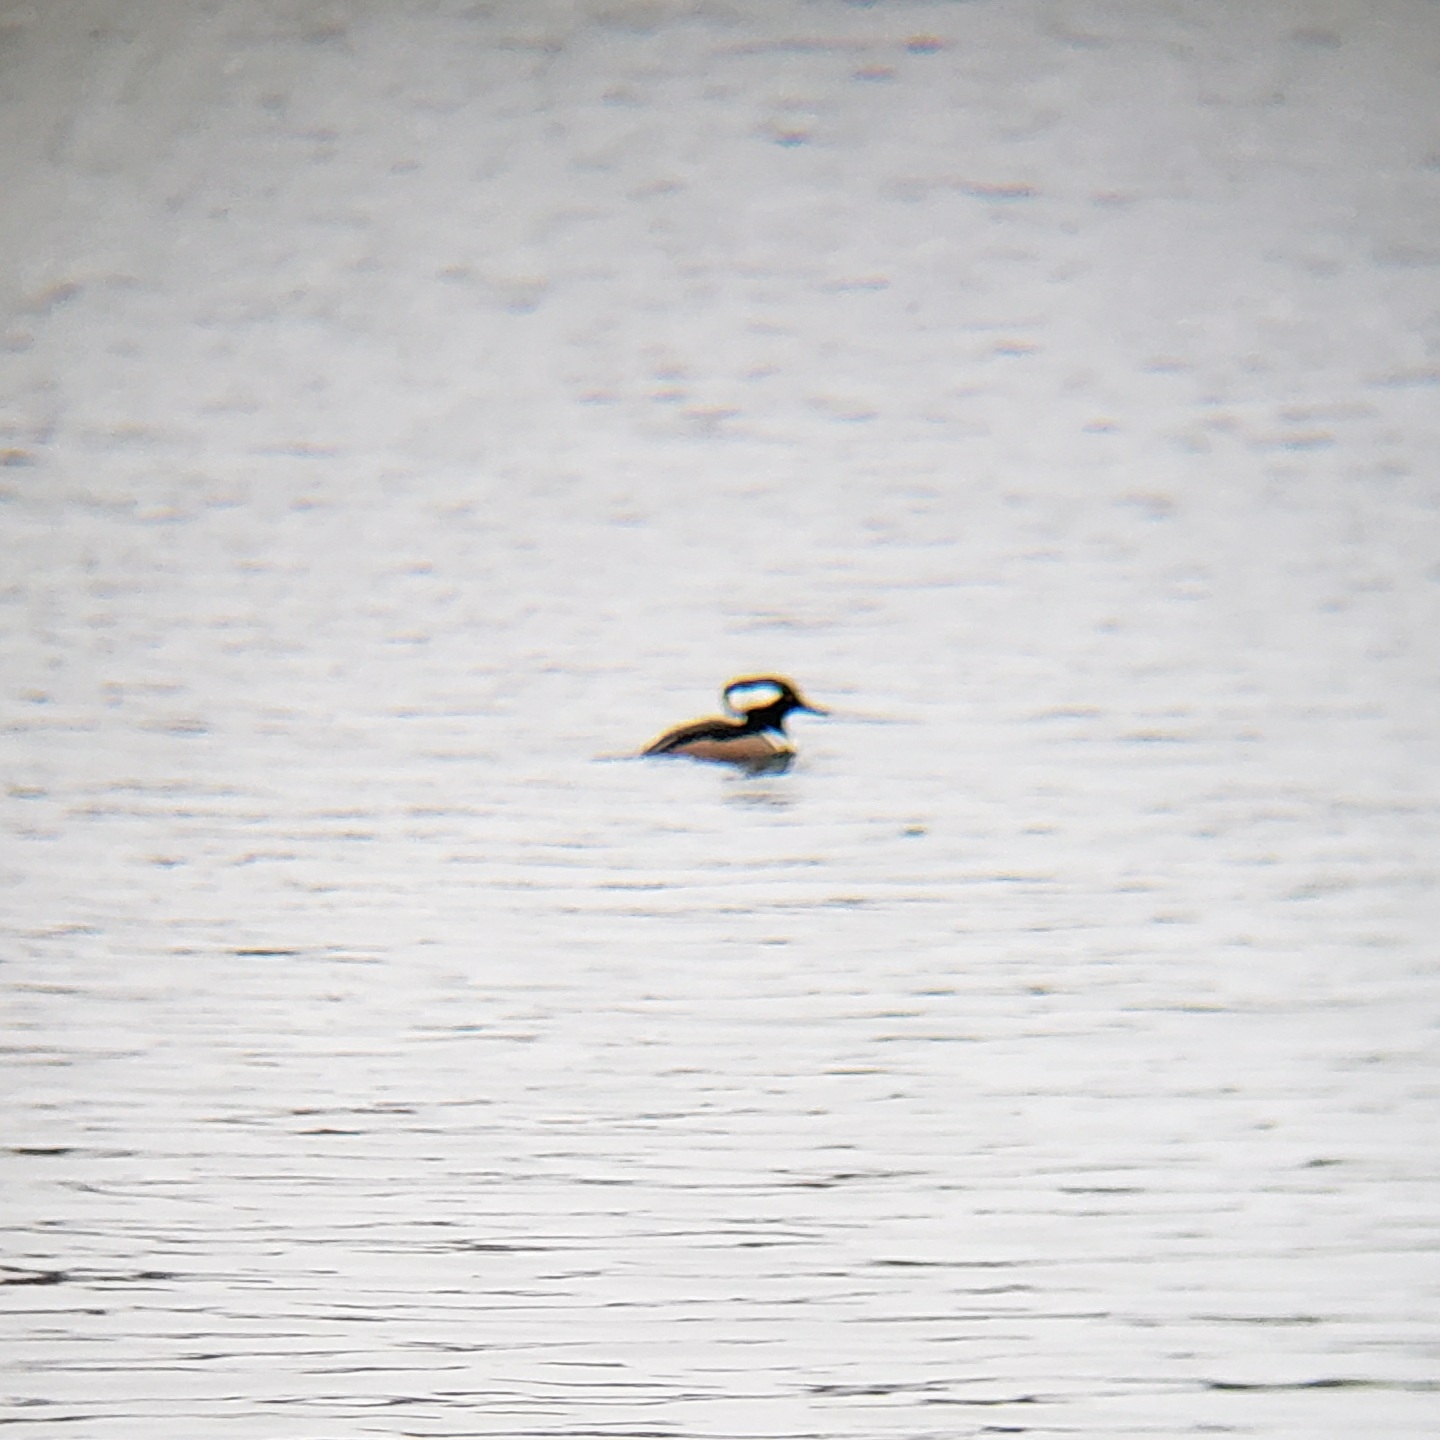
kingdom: Animalia
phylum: Chordata
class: Aves
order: Anseriformes
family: Anatidae
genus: Lophodytes
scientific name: Lophodytes cucullatus
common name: Hooded merganser
